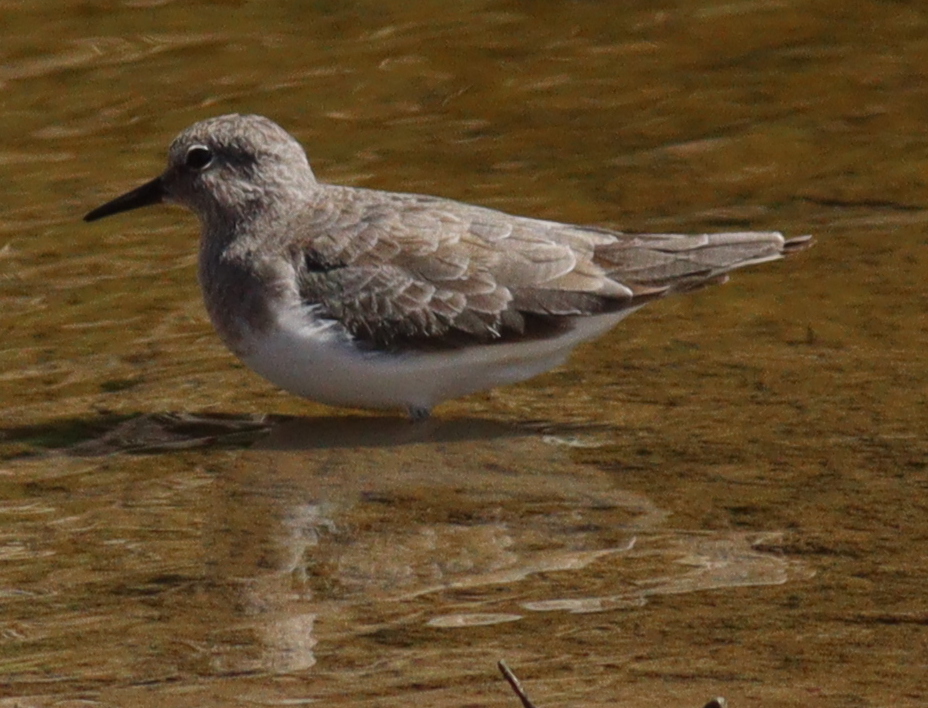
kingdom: Animalia
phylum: Chordata
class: Aves
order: Charadriiformes
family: Scolopacidae
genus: Calidris
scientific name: Calidris temminckii
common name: Temminck's stint
